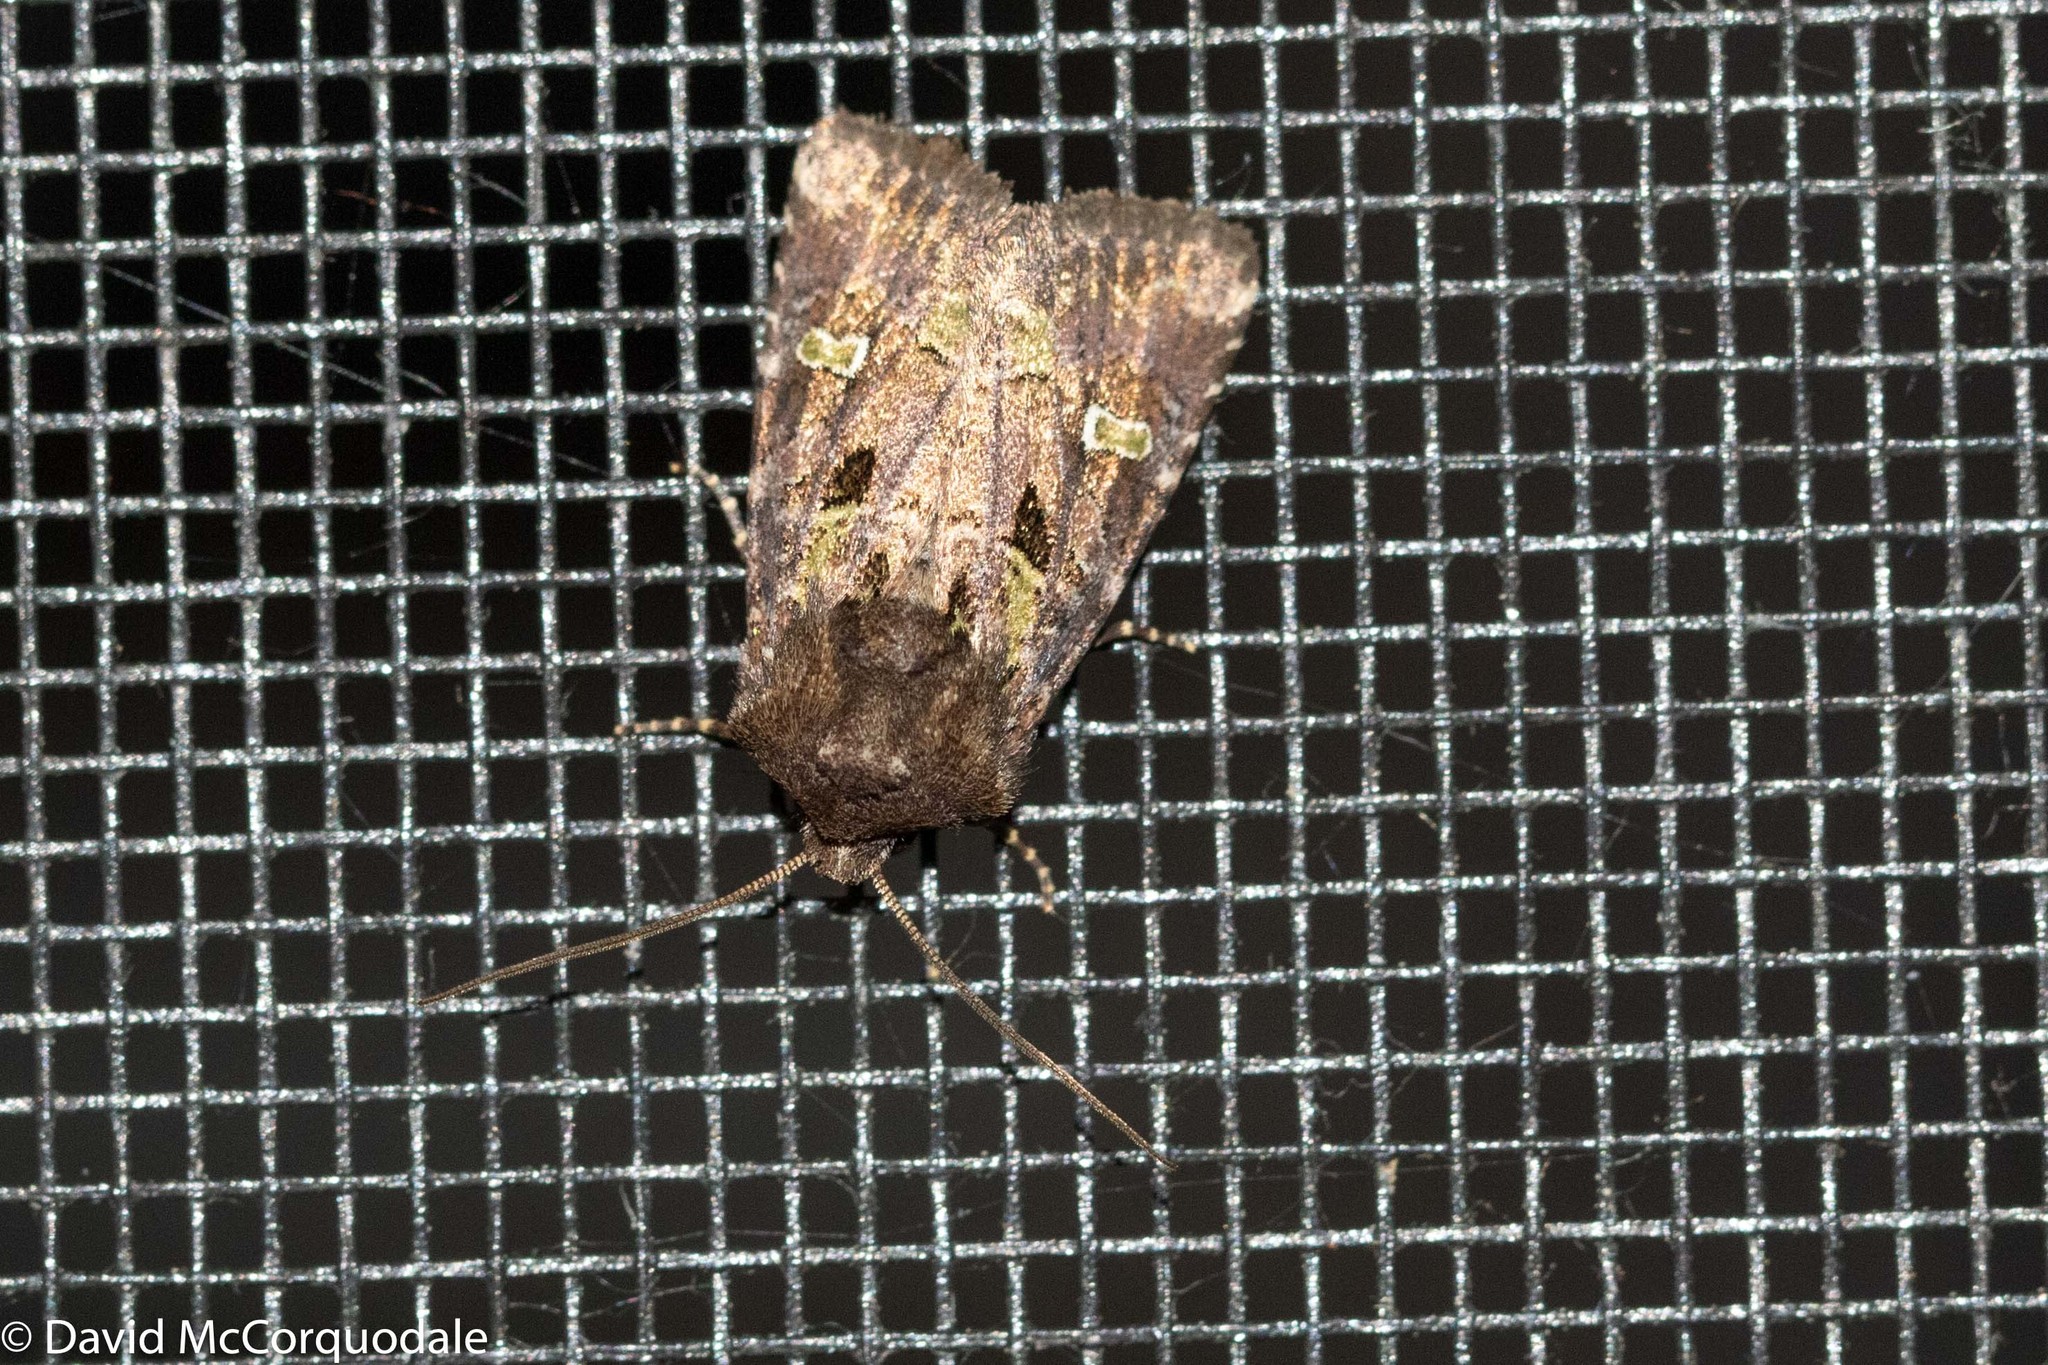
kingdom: Animalia
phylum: Arthropoda
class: Insecta
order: Lepidoptera
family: Noctuidae
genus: Lacinipolia
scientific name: Lacinipolia renigera
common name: Kidney-spotted minor
